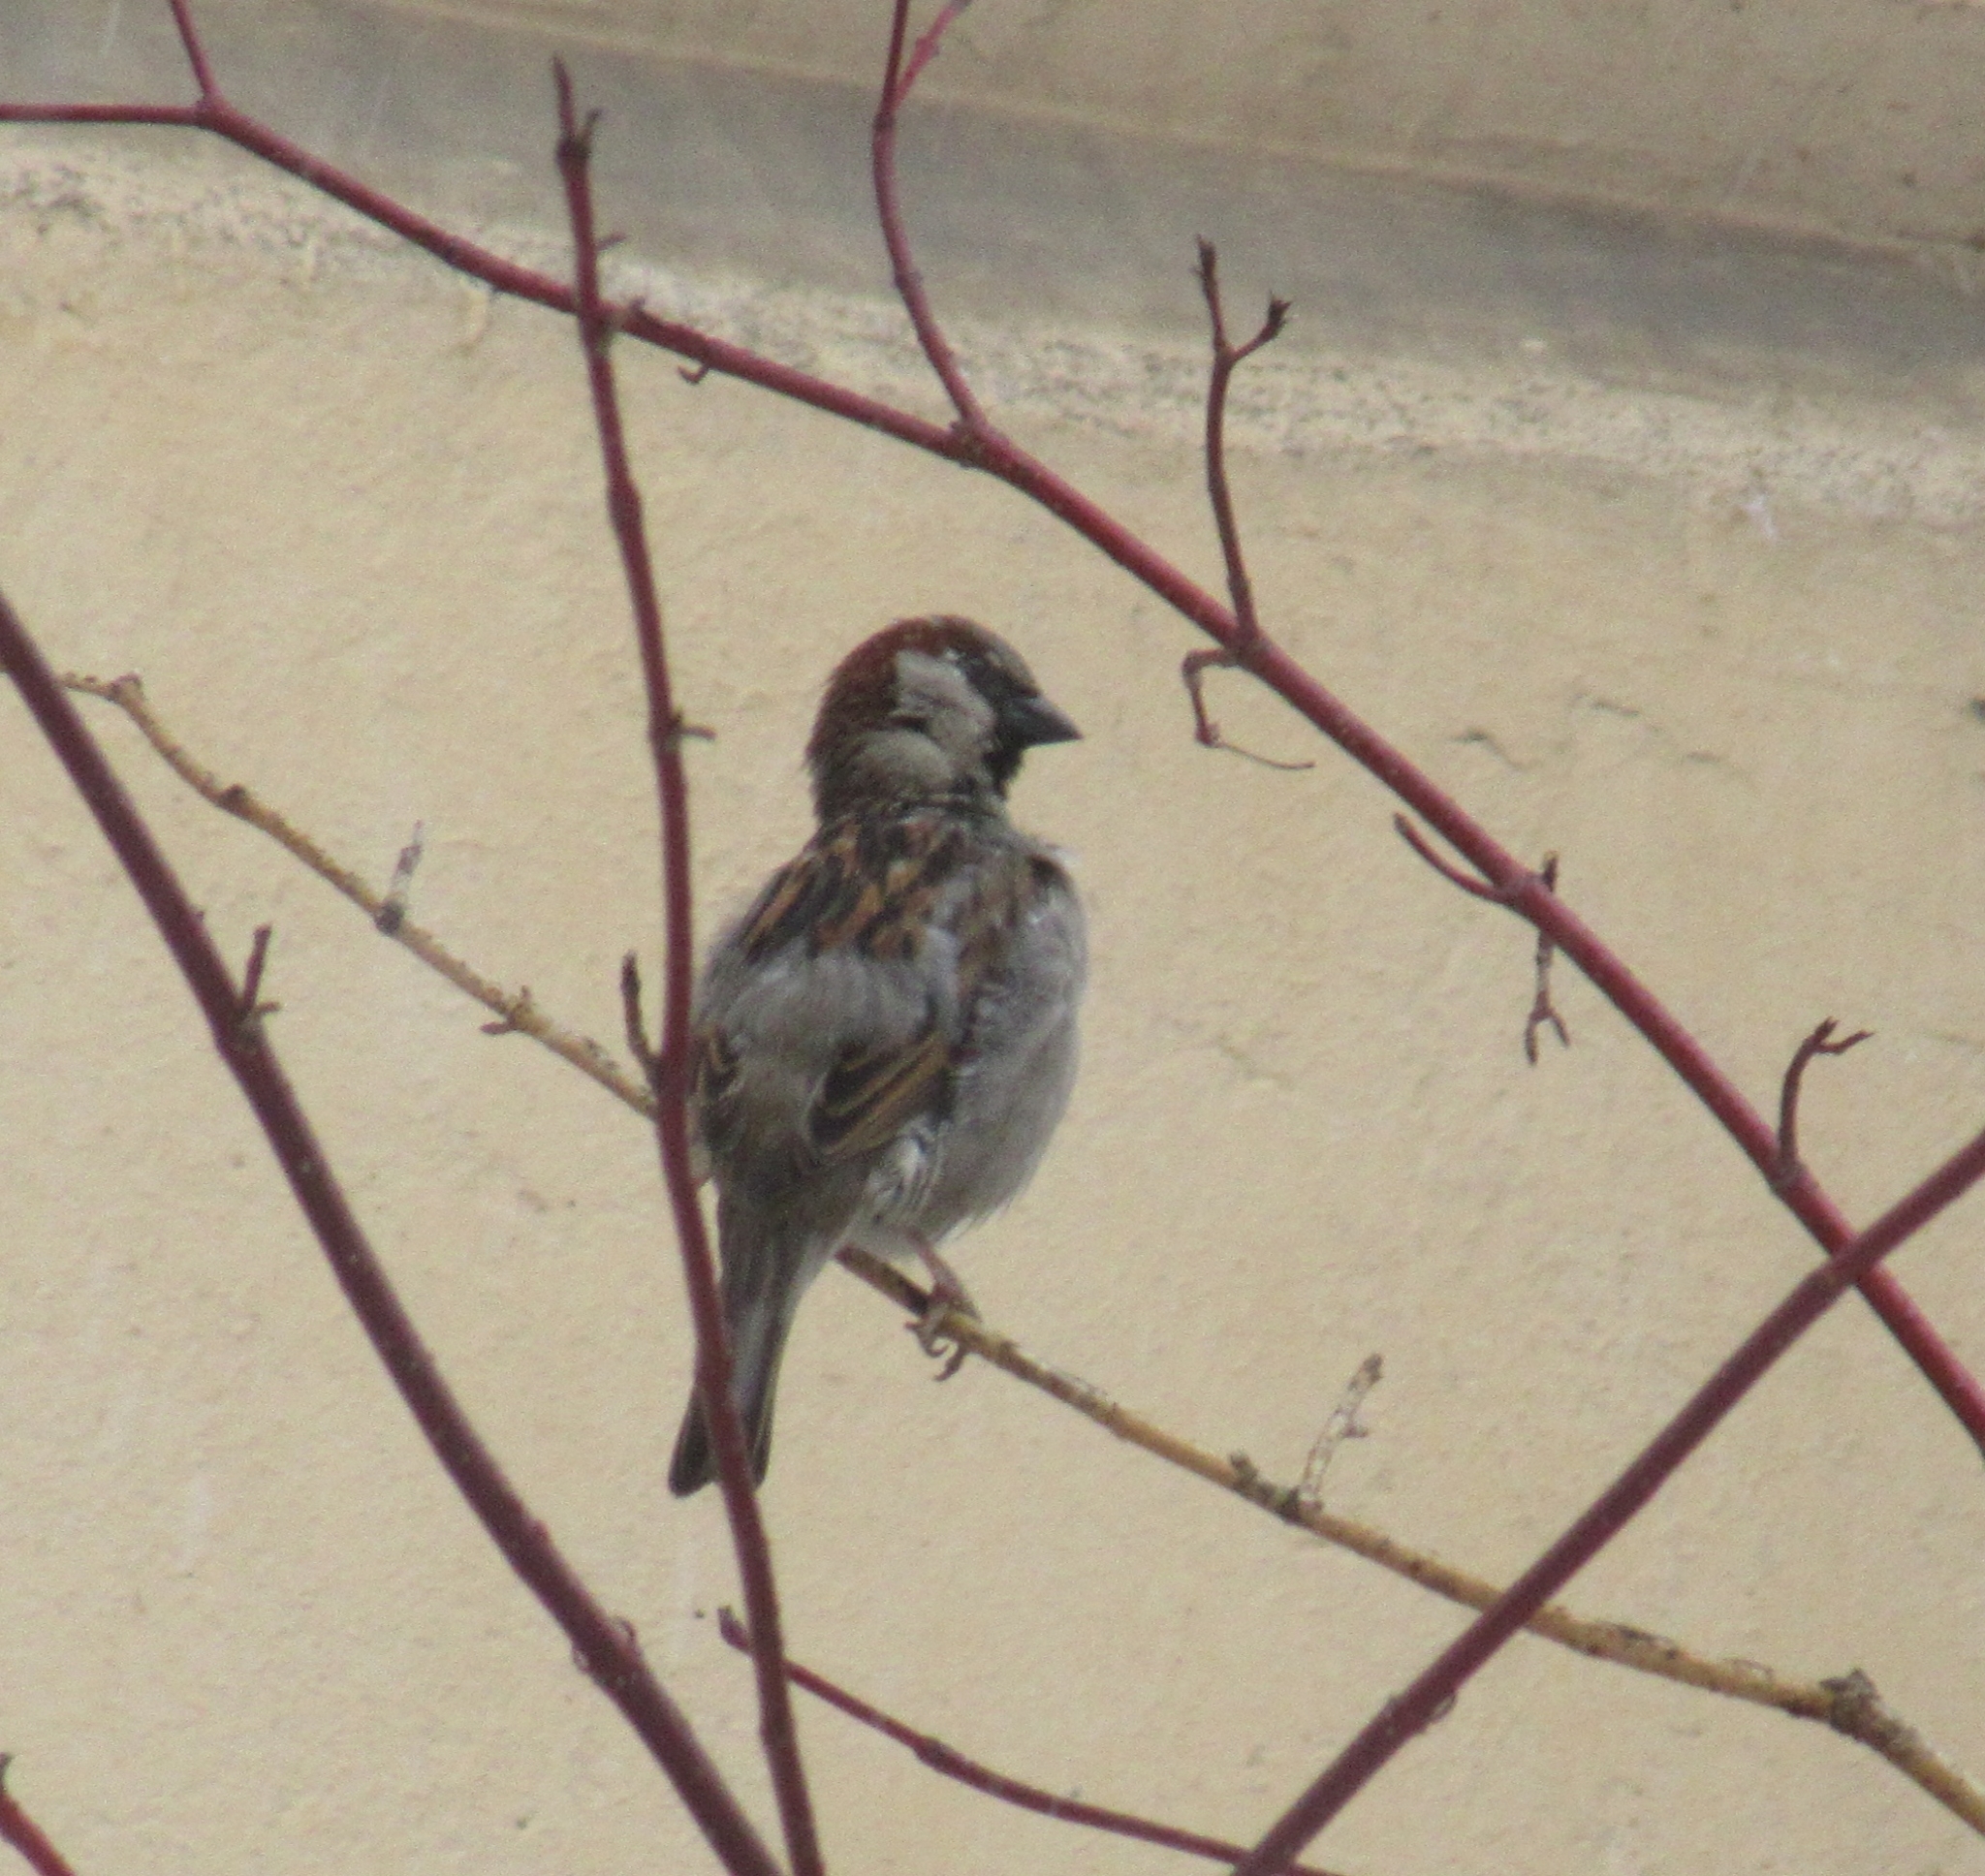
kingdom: Animalia
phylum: Chordata
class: Aves
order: Passeriformes
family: Passeridae
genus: Passer
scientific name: Passer domesticus
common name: House sparrow
